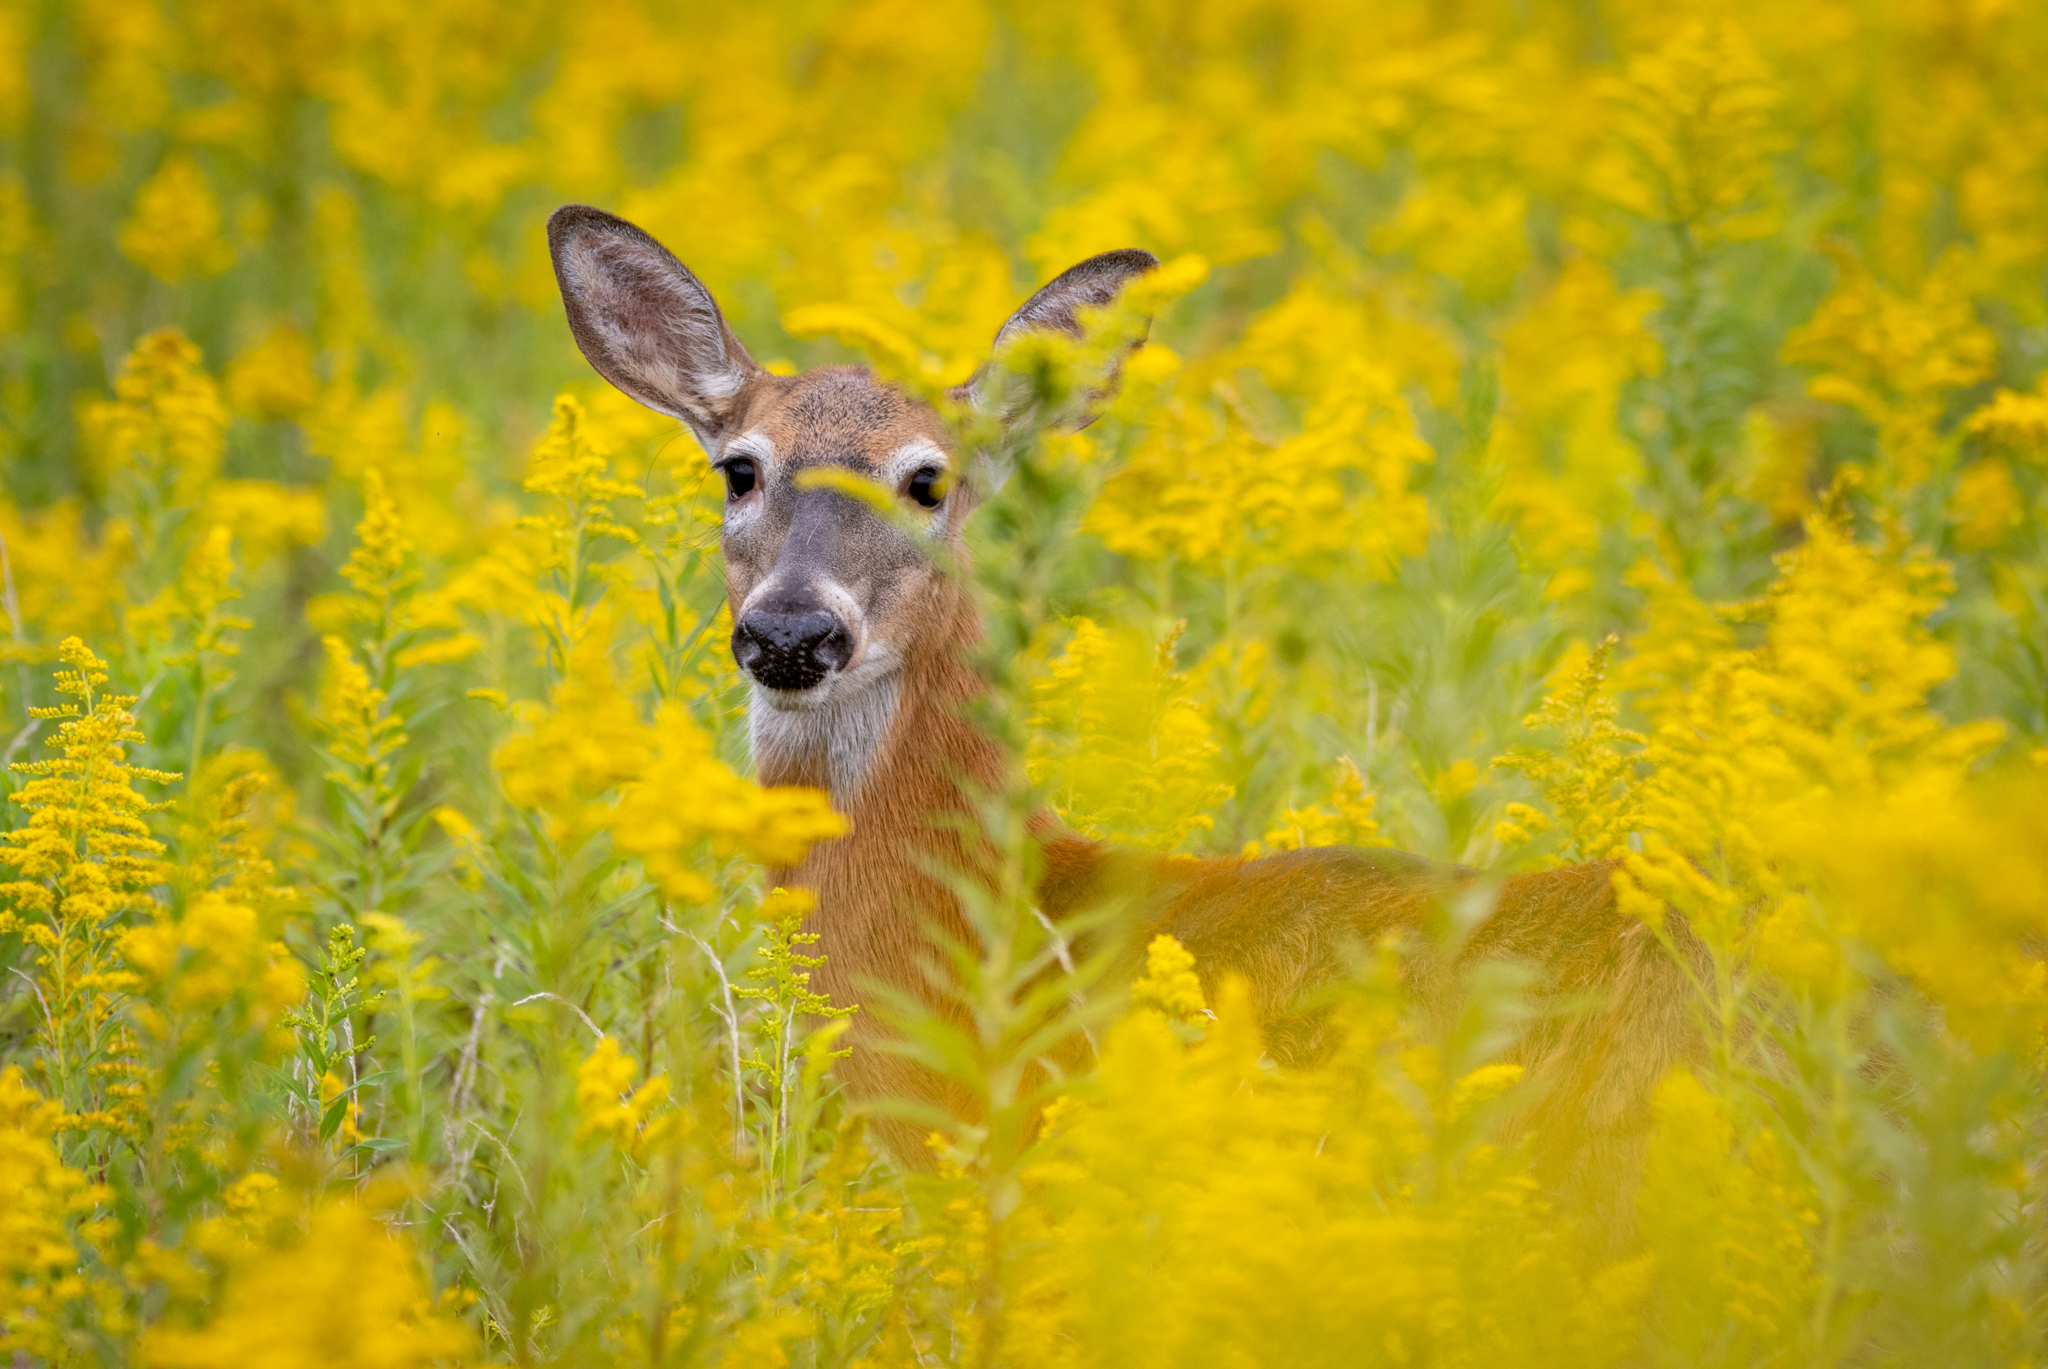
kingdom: Animalia
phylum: Chordata
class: Mammalia
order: Artiodactyla
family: Cervidae
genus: Odocoileus
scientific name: Odocoileus virginianus
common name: White-tailed deer
